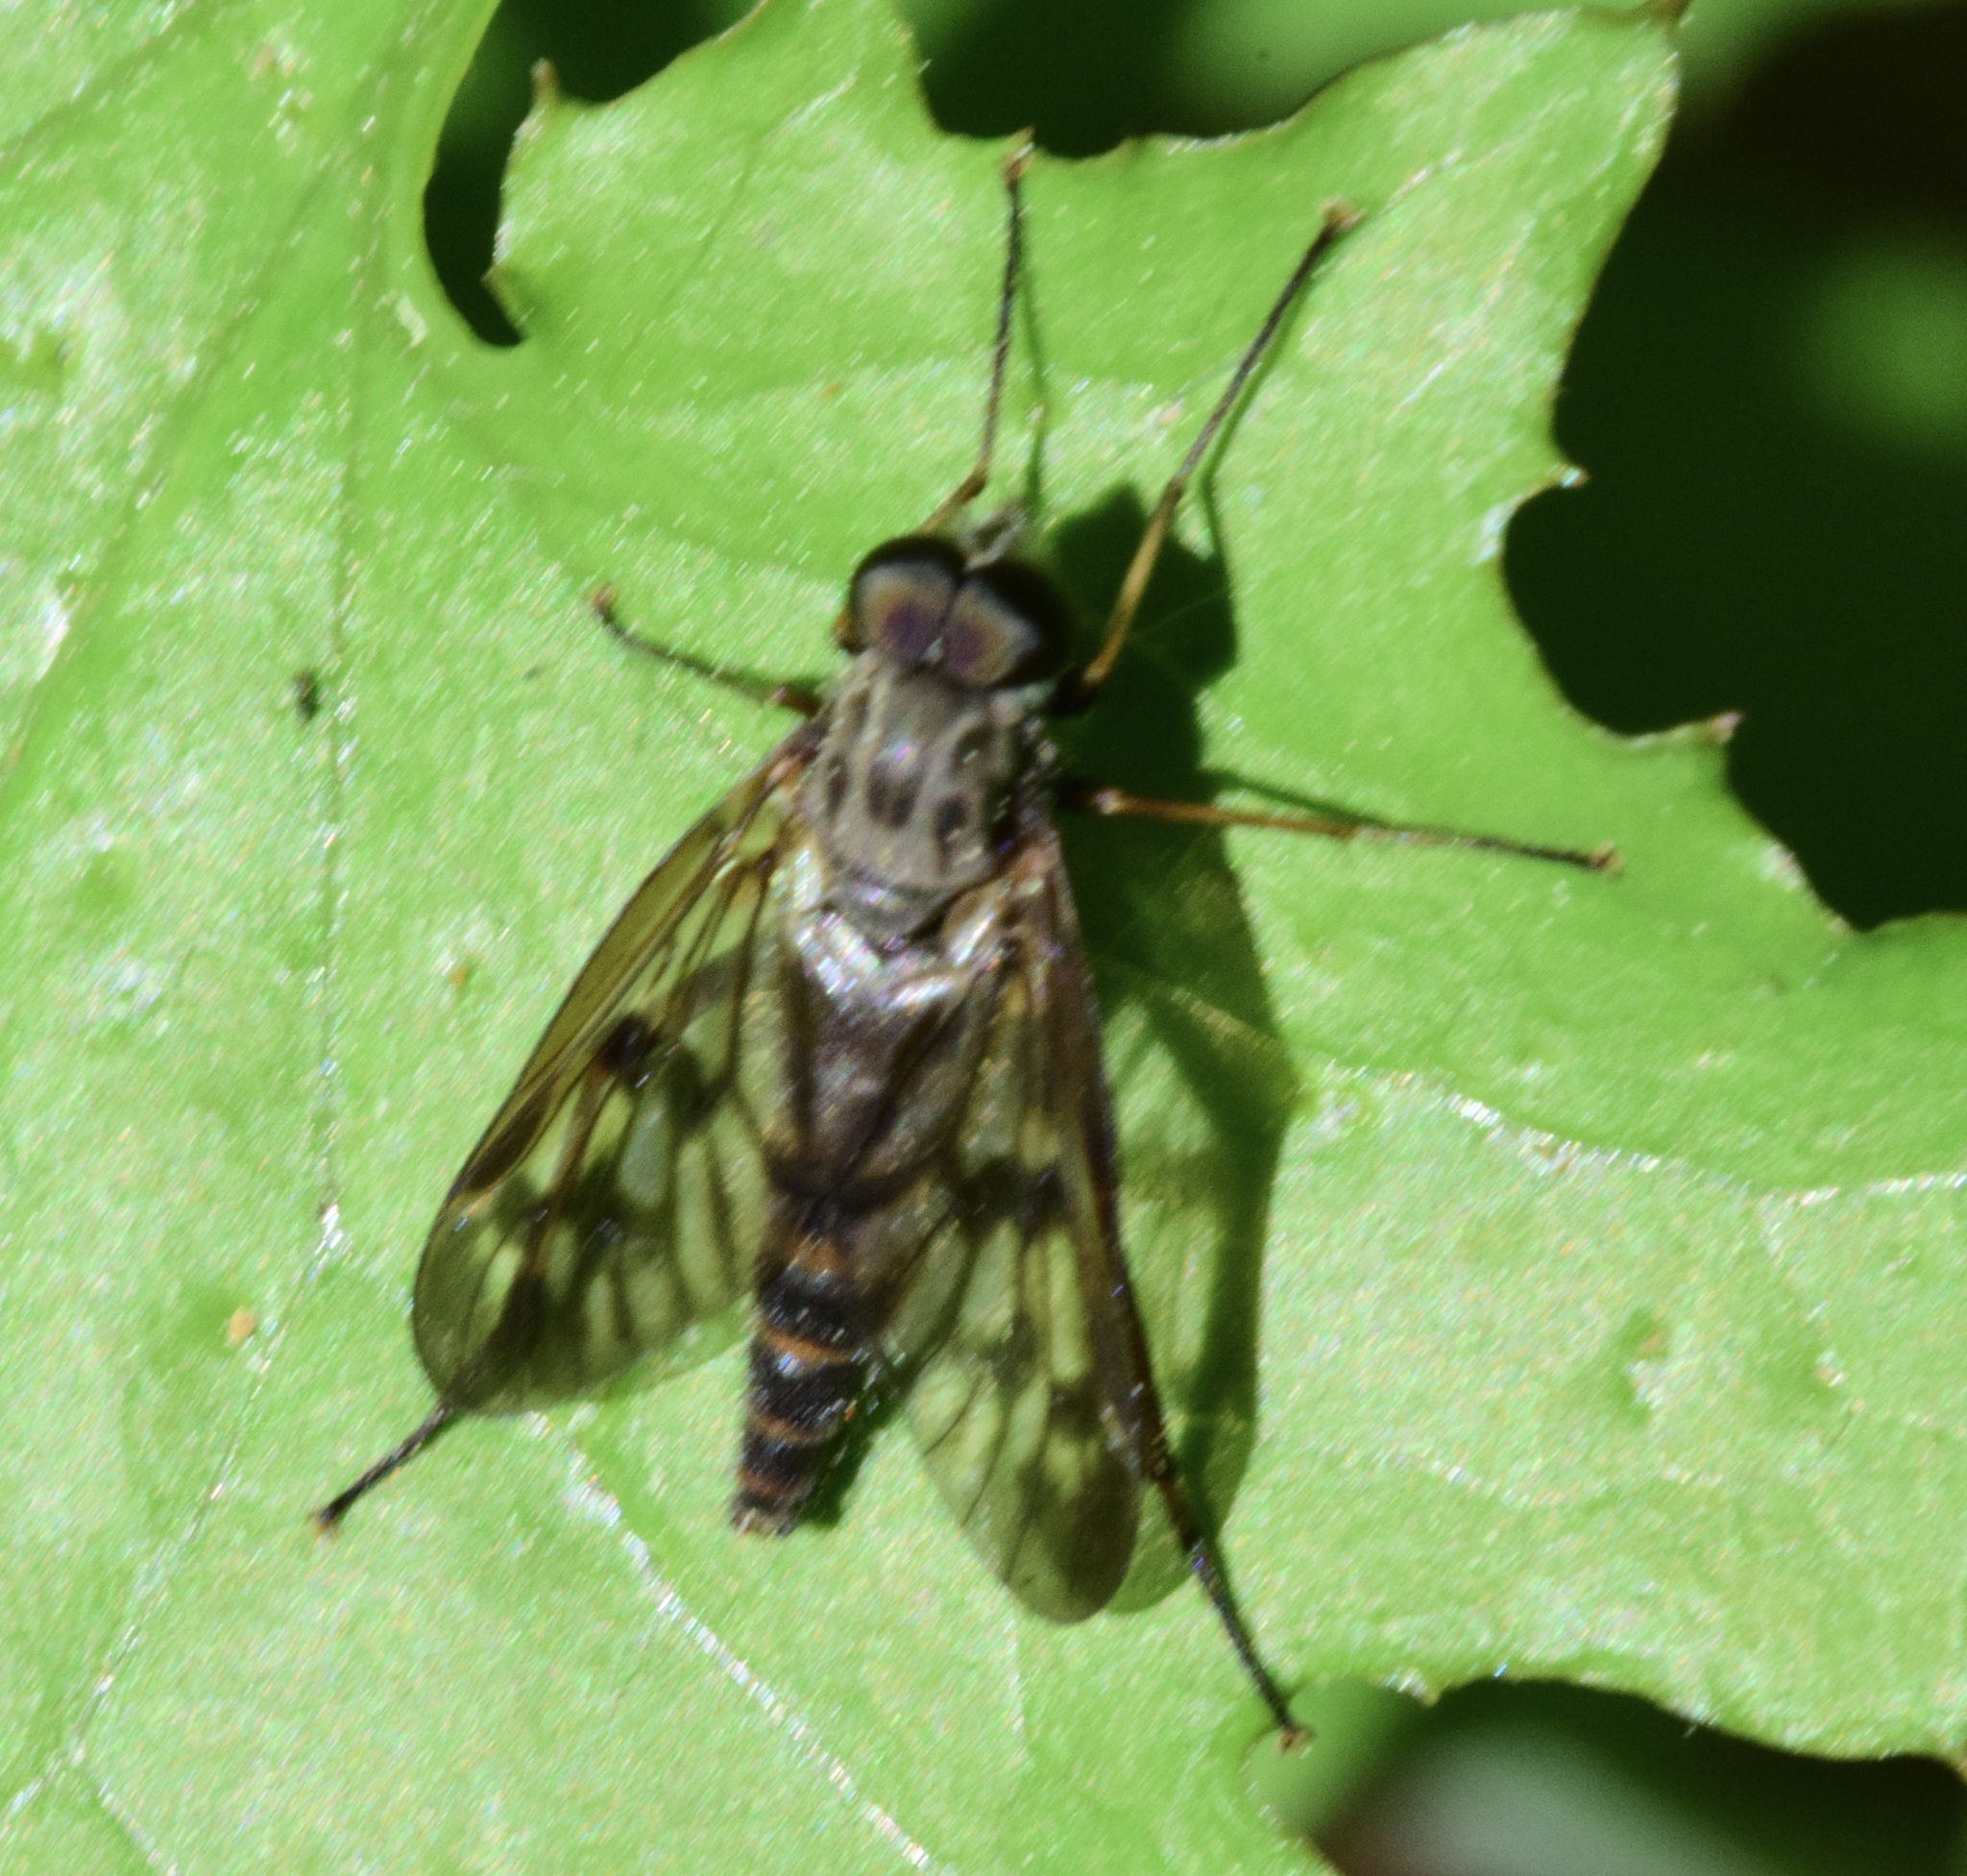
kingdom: Animalia
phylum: Arthropoda
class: Insecta
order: Diptera
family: Rhagionidae
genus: Rhagio
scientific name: Rhagio mystaceus
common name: Common snipe fly
